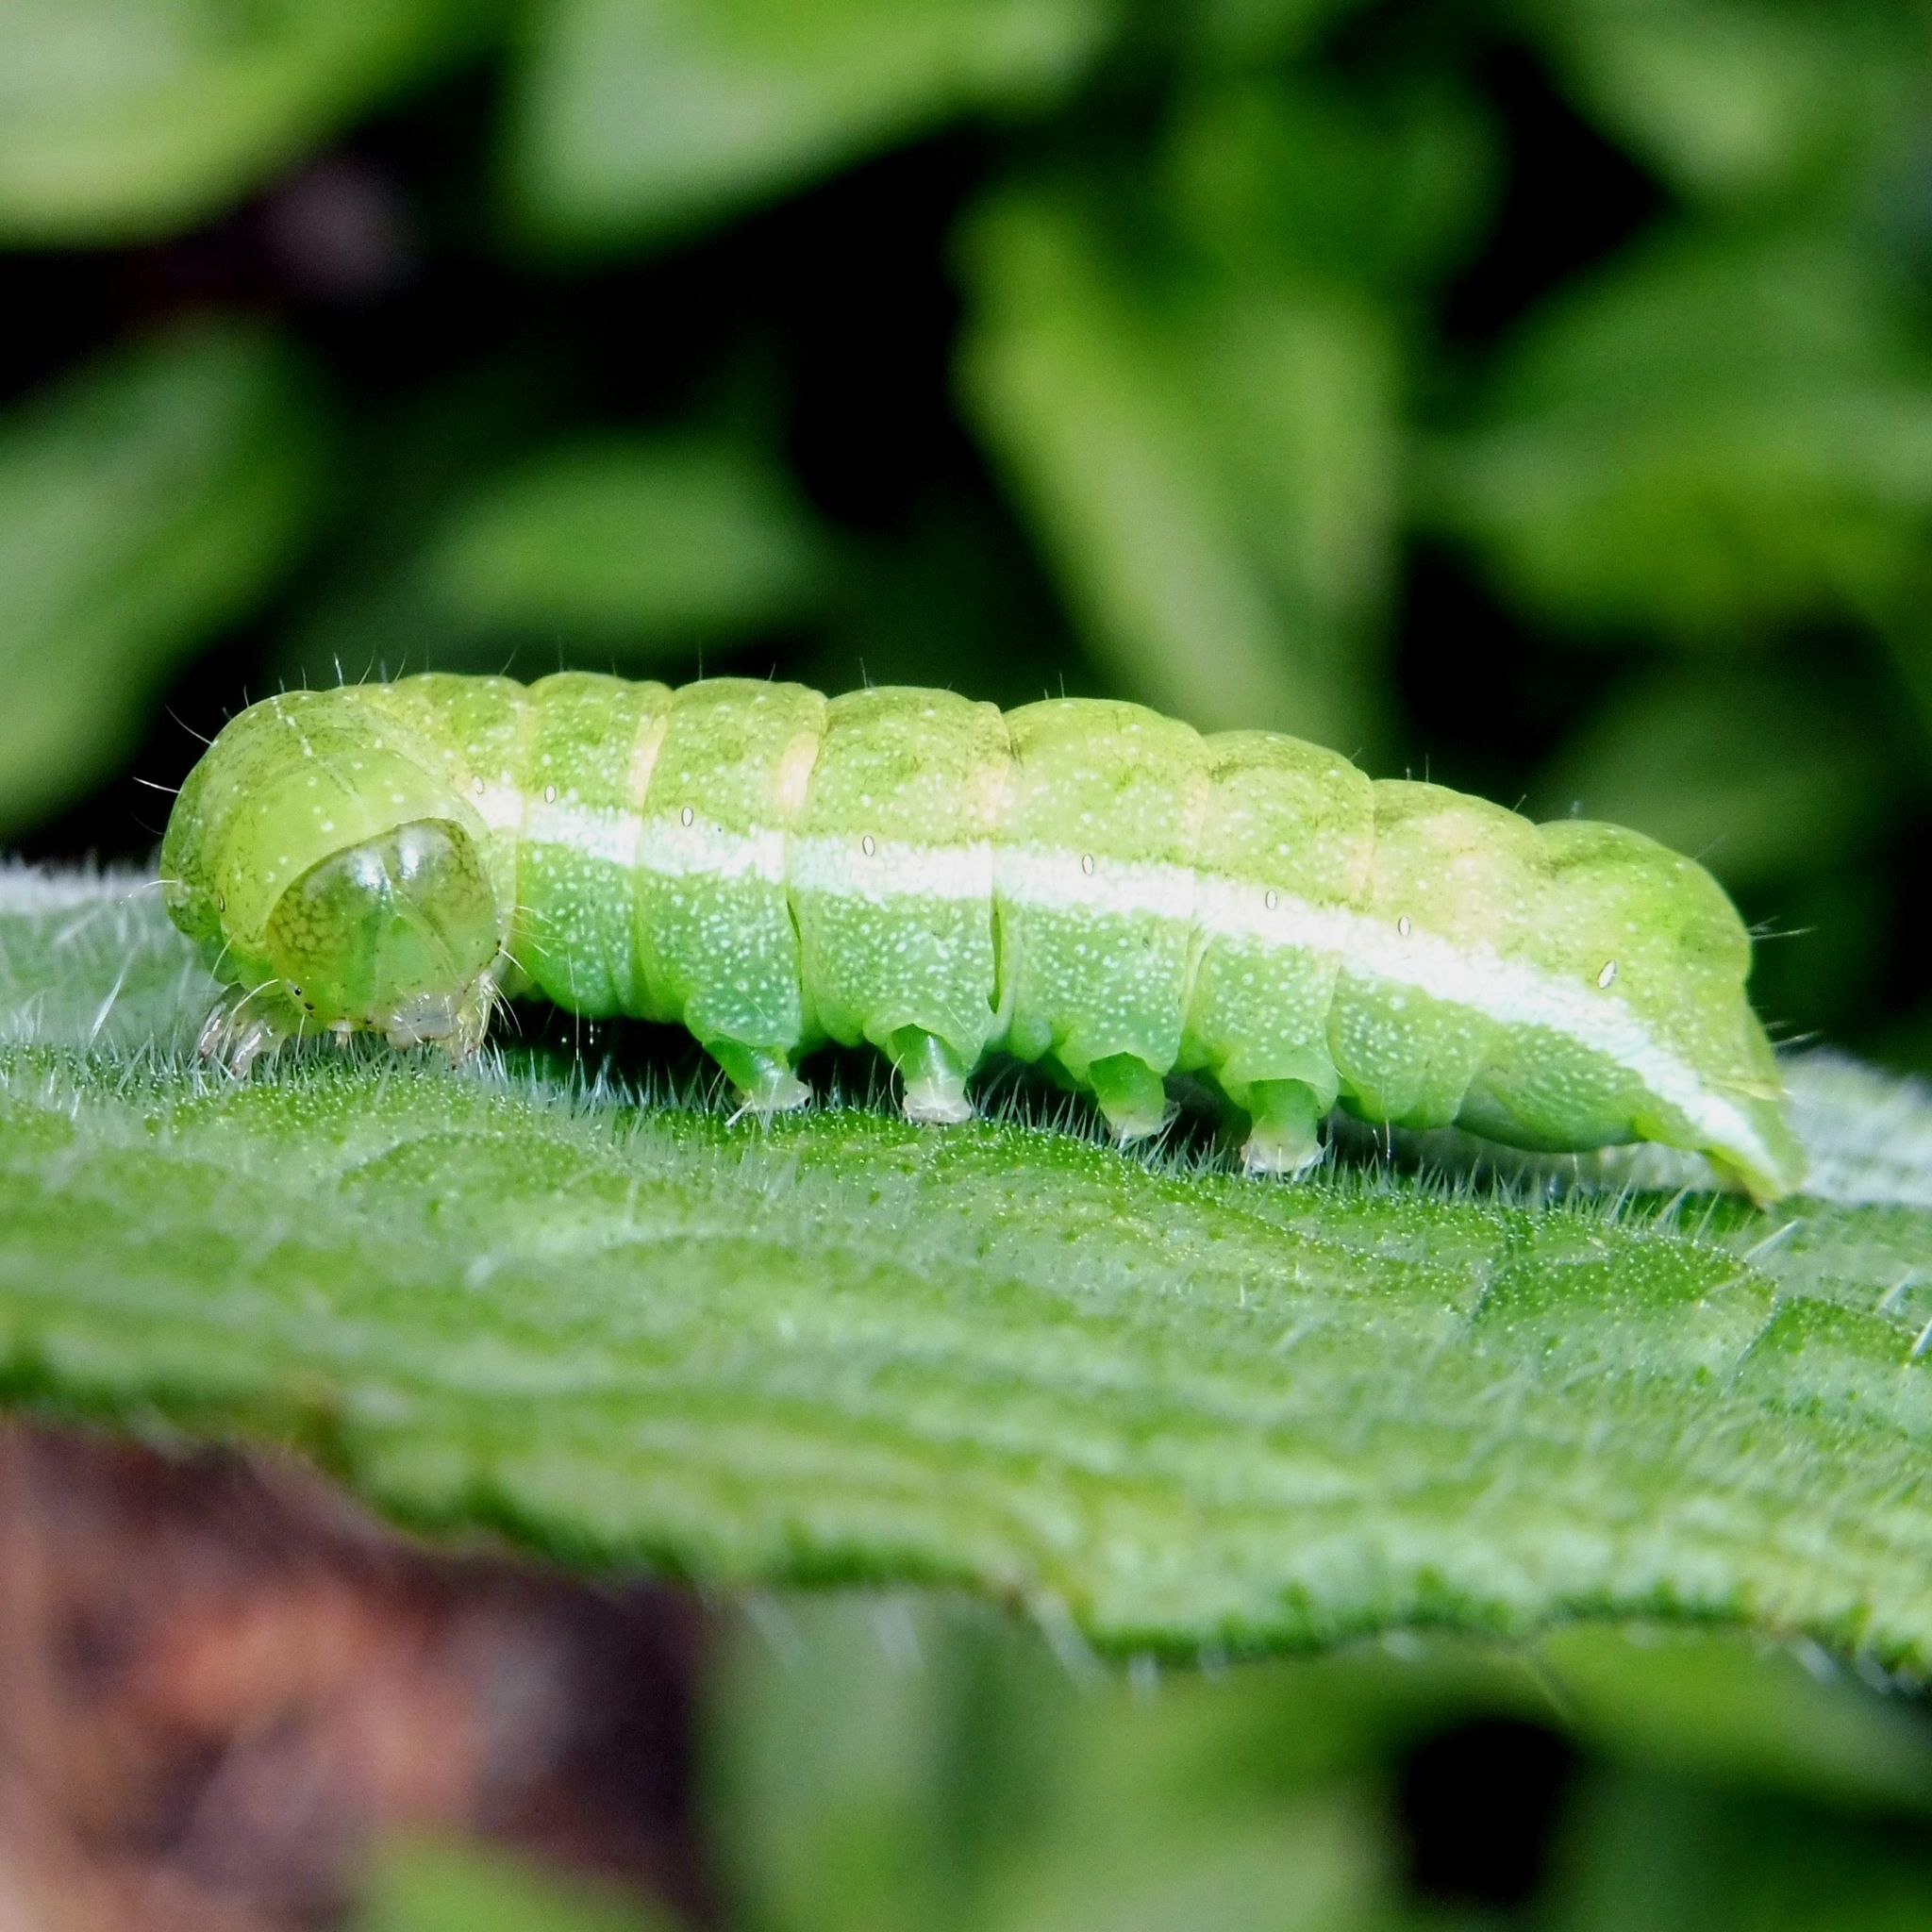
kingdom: Animalia
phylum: Arthropoda
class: Insecta
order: Lepidoptera
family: Noctuidae
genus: Phlogophora
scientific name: Phlogophora meticulosa
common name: Angle shades
